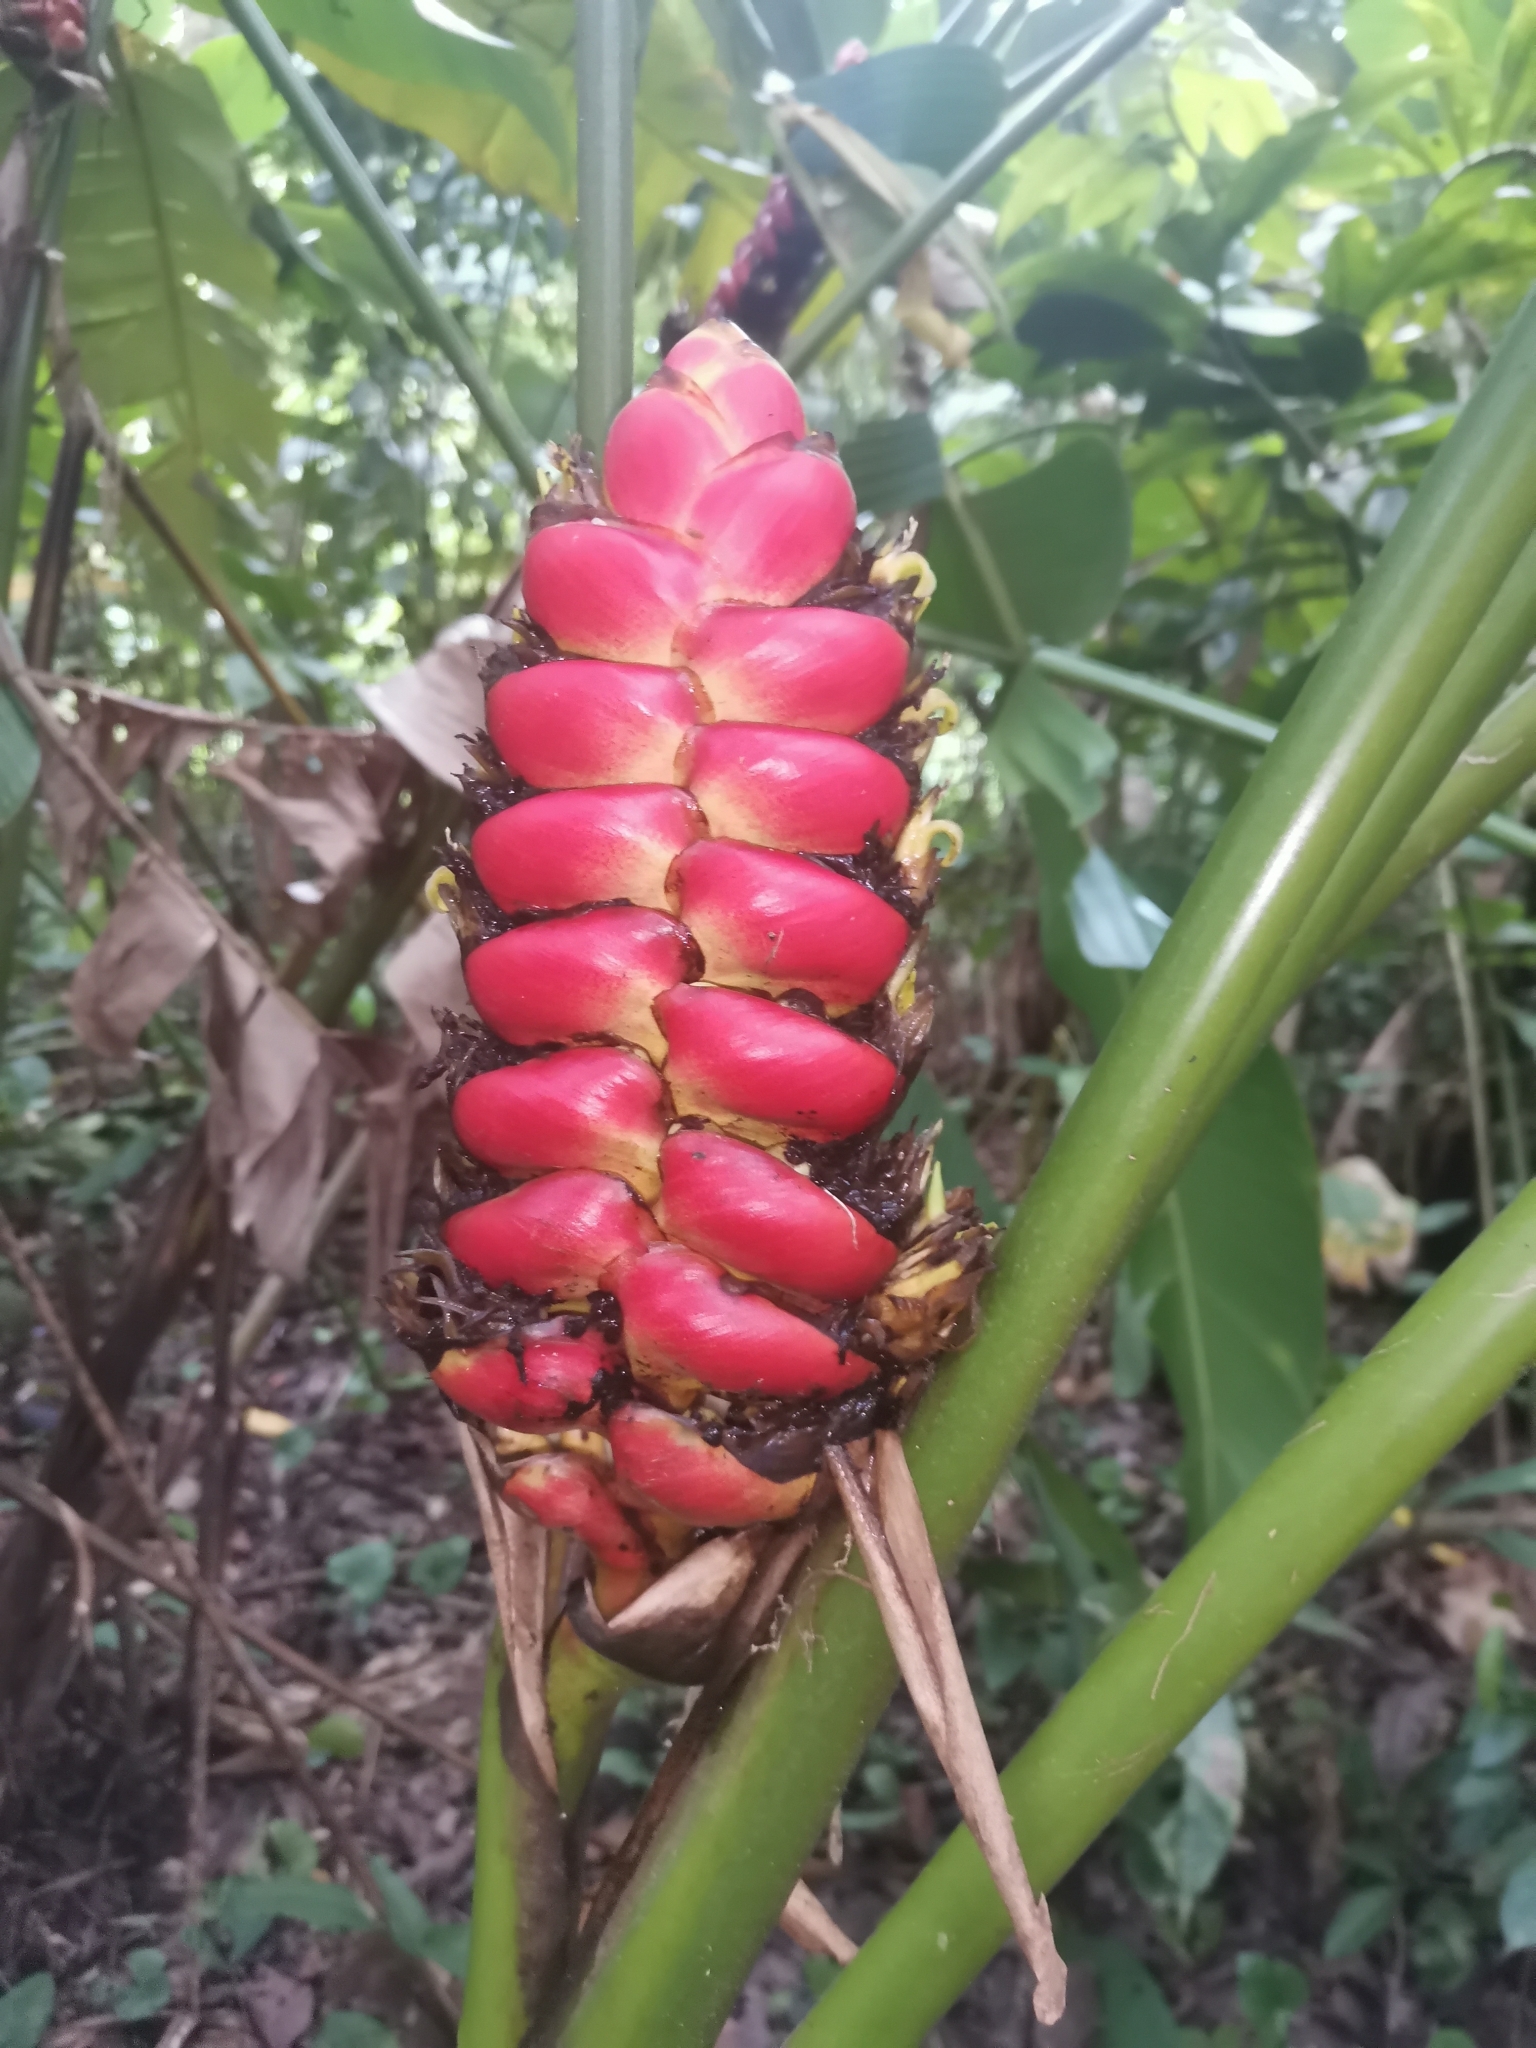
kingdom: Plantae
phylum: Tracheophyta
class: Liliopsida
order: Zingiberales
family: Heliconiaceae
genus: Heliconia
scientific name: Heliconia imbricata
